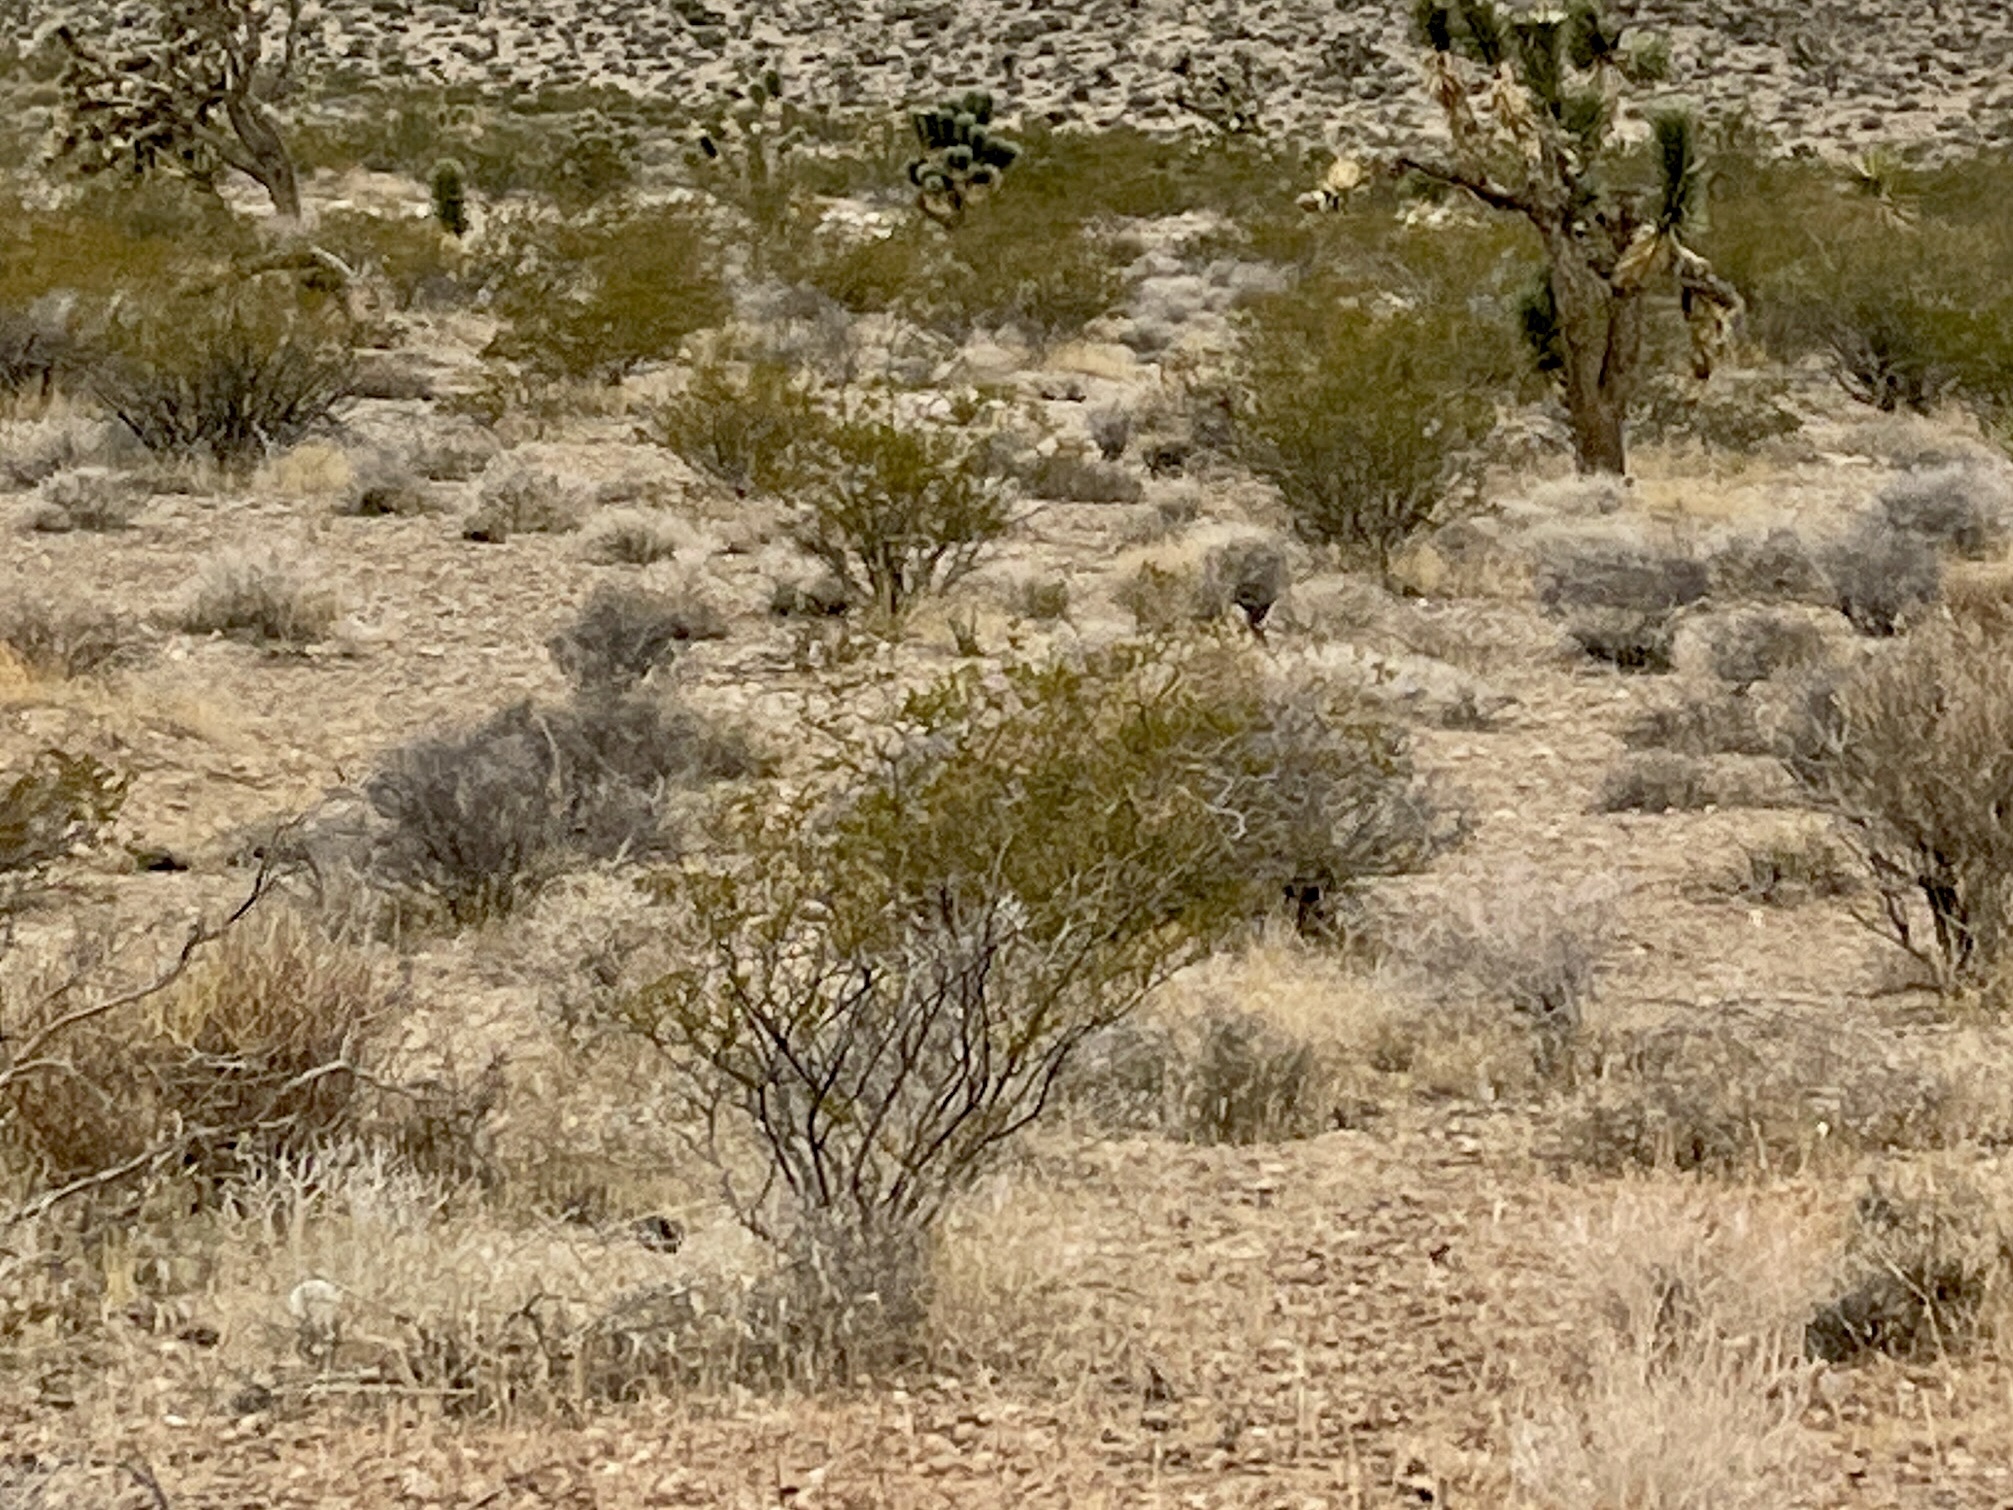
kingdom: Plantae
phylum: Tracheophyta
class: Magnoliopsida
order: Zygophyllales
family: Zygophyllaceae
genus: Larrea
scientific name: Larrea tridentata
